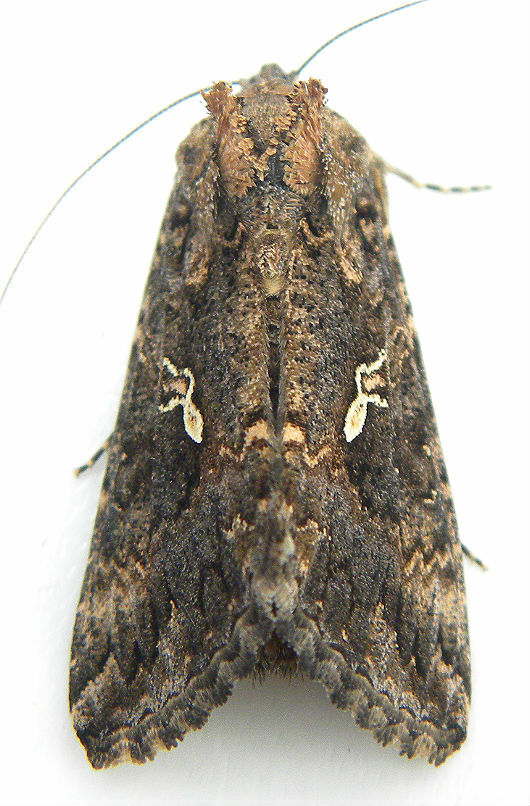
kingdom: Animalia
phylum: Arthropoda
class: Insecta
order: Lepidoptera
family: Noctuidae
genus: Trichoplusia
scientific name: Trichoplusia ni
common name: Ni moth
